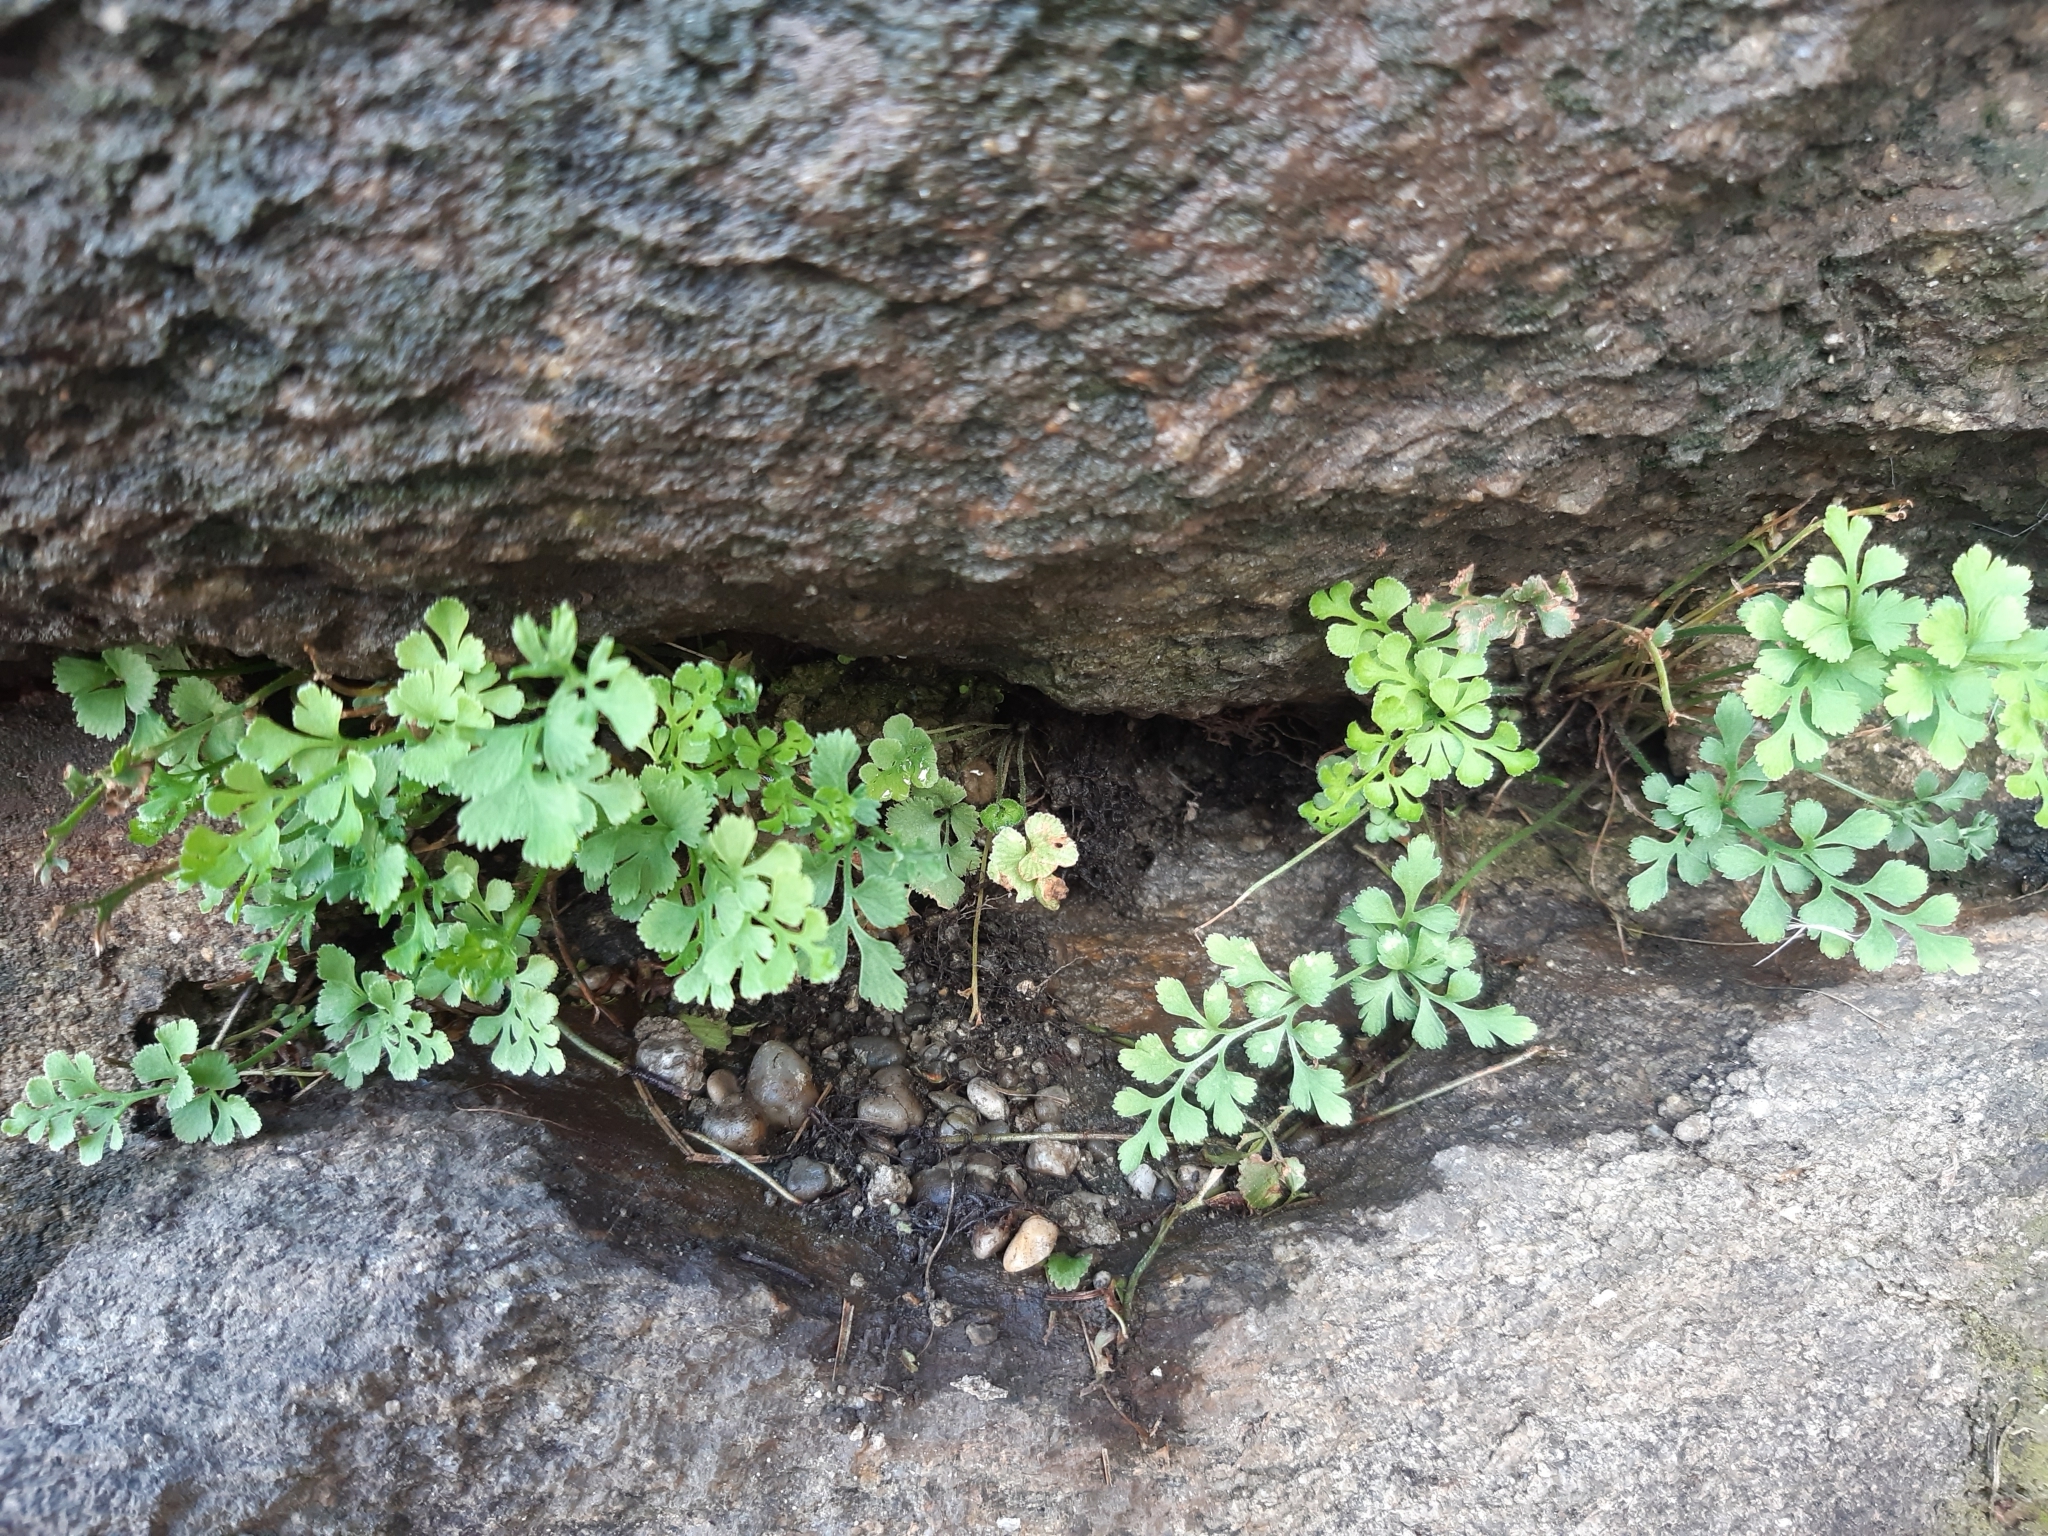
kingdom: Plantae
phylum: Tracheophyta
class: Polypodiopsida
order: Polypodiales
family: Aspleniaceae
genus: Asplenium
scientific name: Asplenium ruta-muraria
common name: Wall-rue
